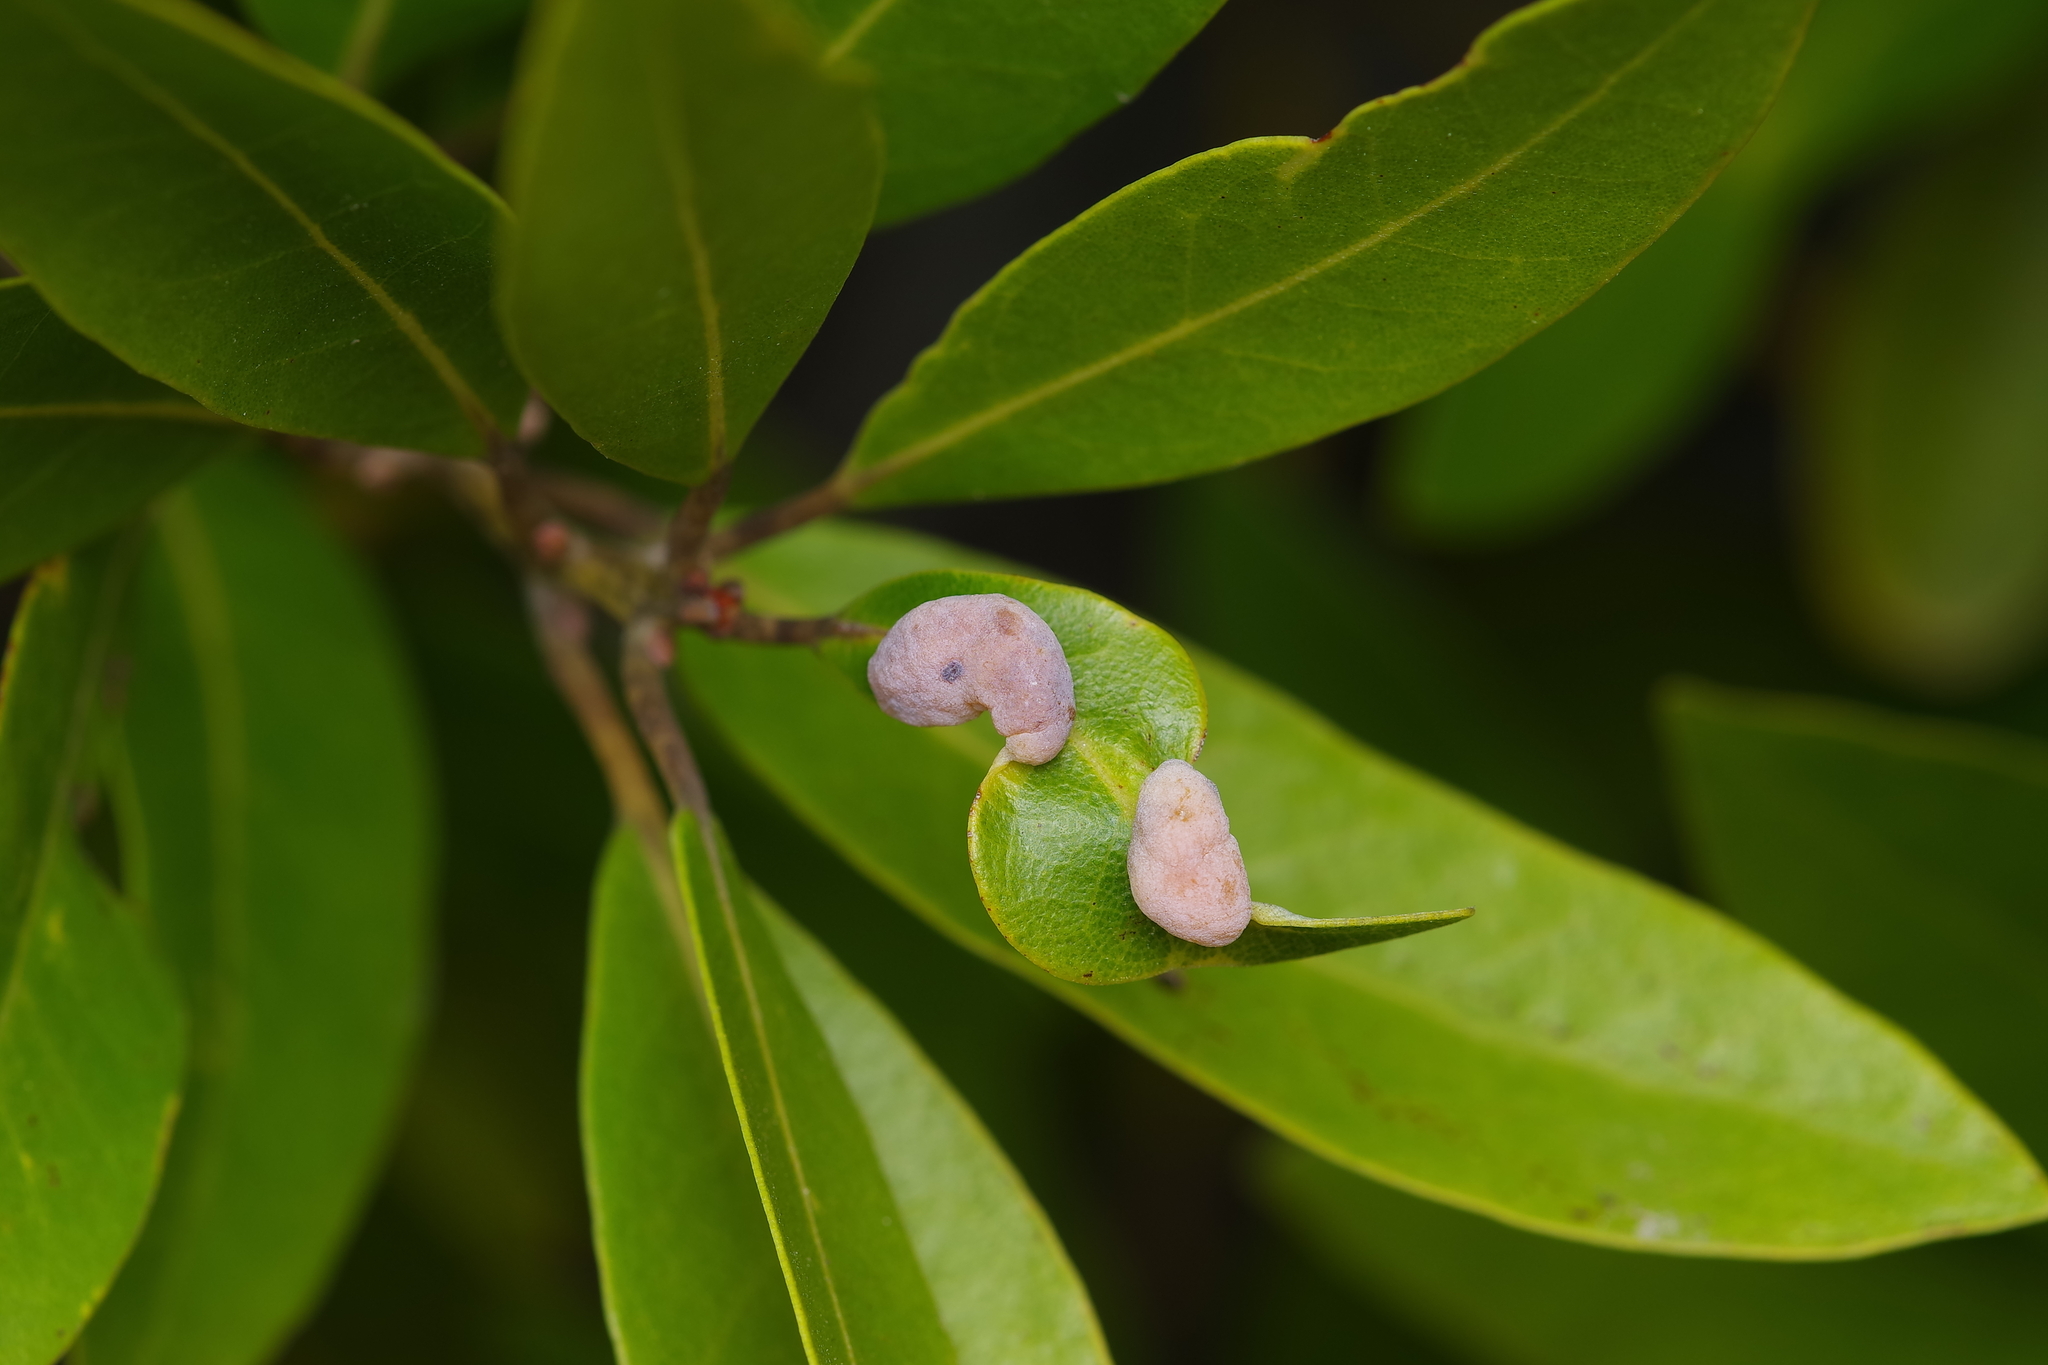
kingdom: Animalia
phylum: Arthropoda
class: Insecta
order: Hemiptera
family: Triozidae
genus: Trioza
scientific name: Trioza magnoliae
